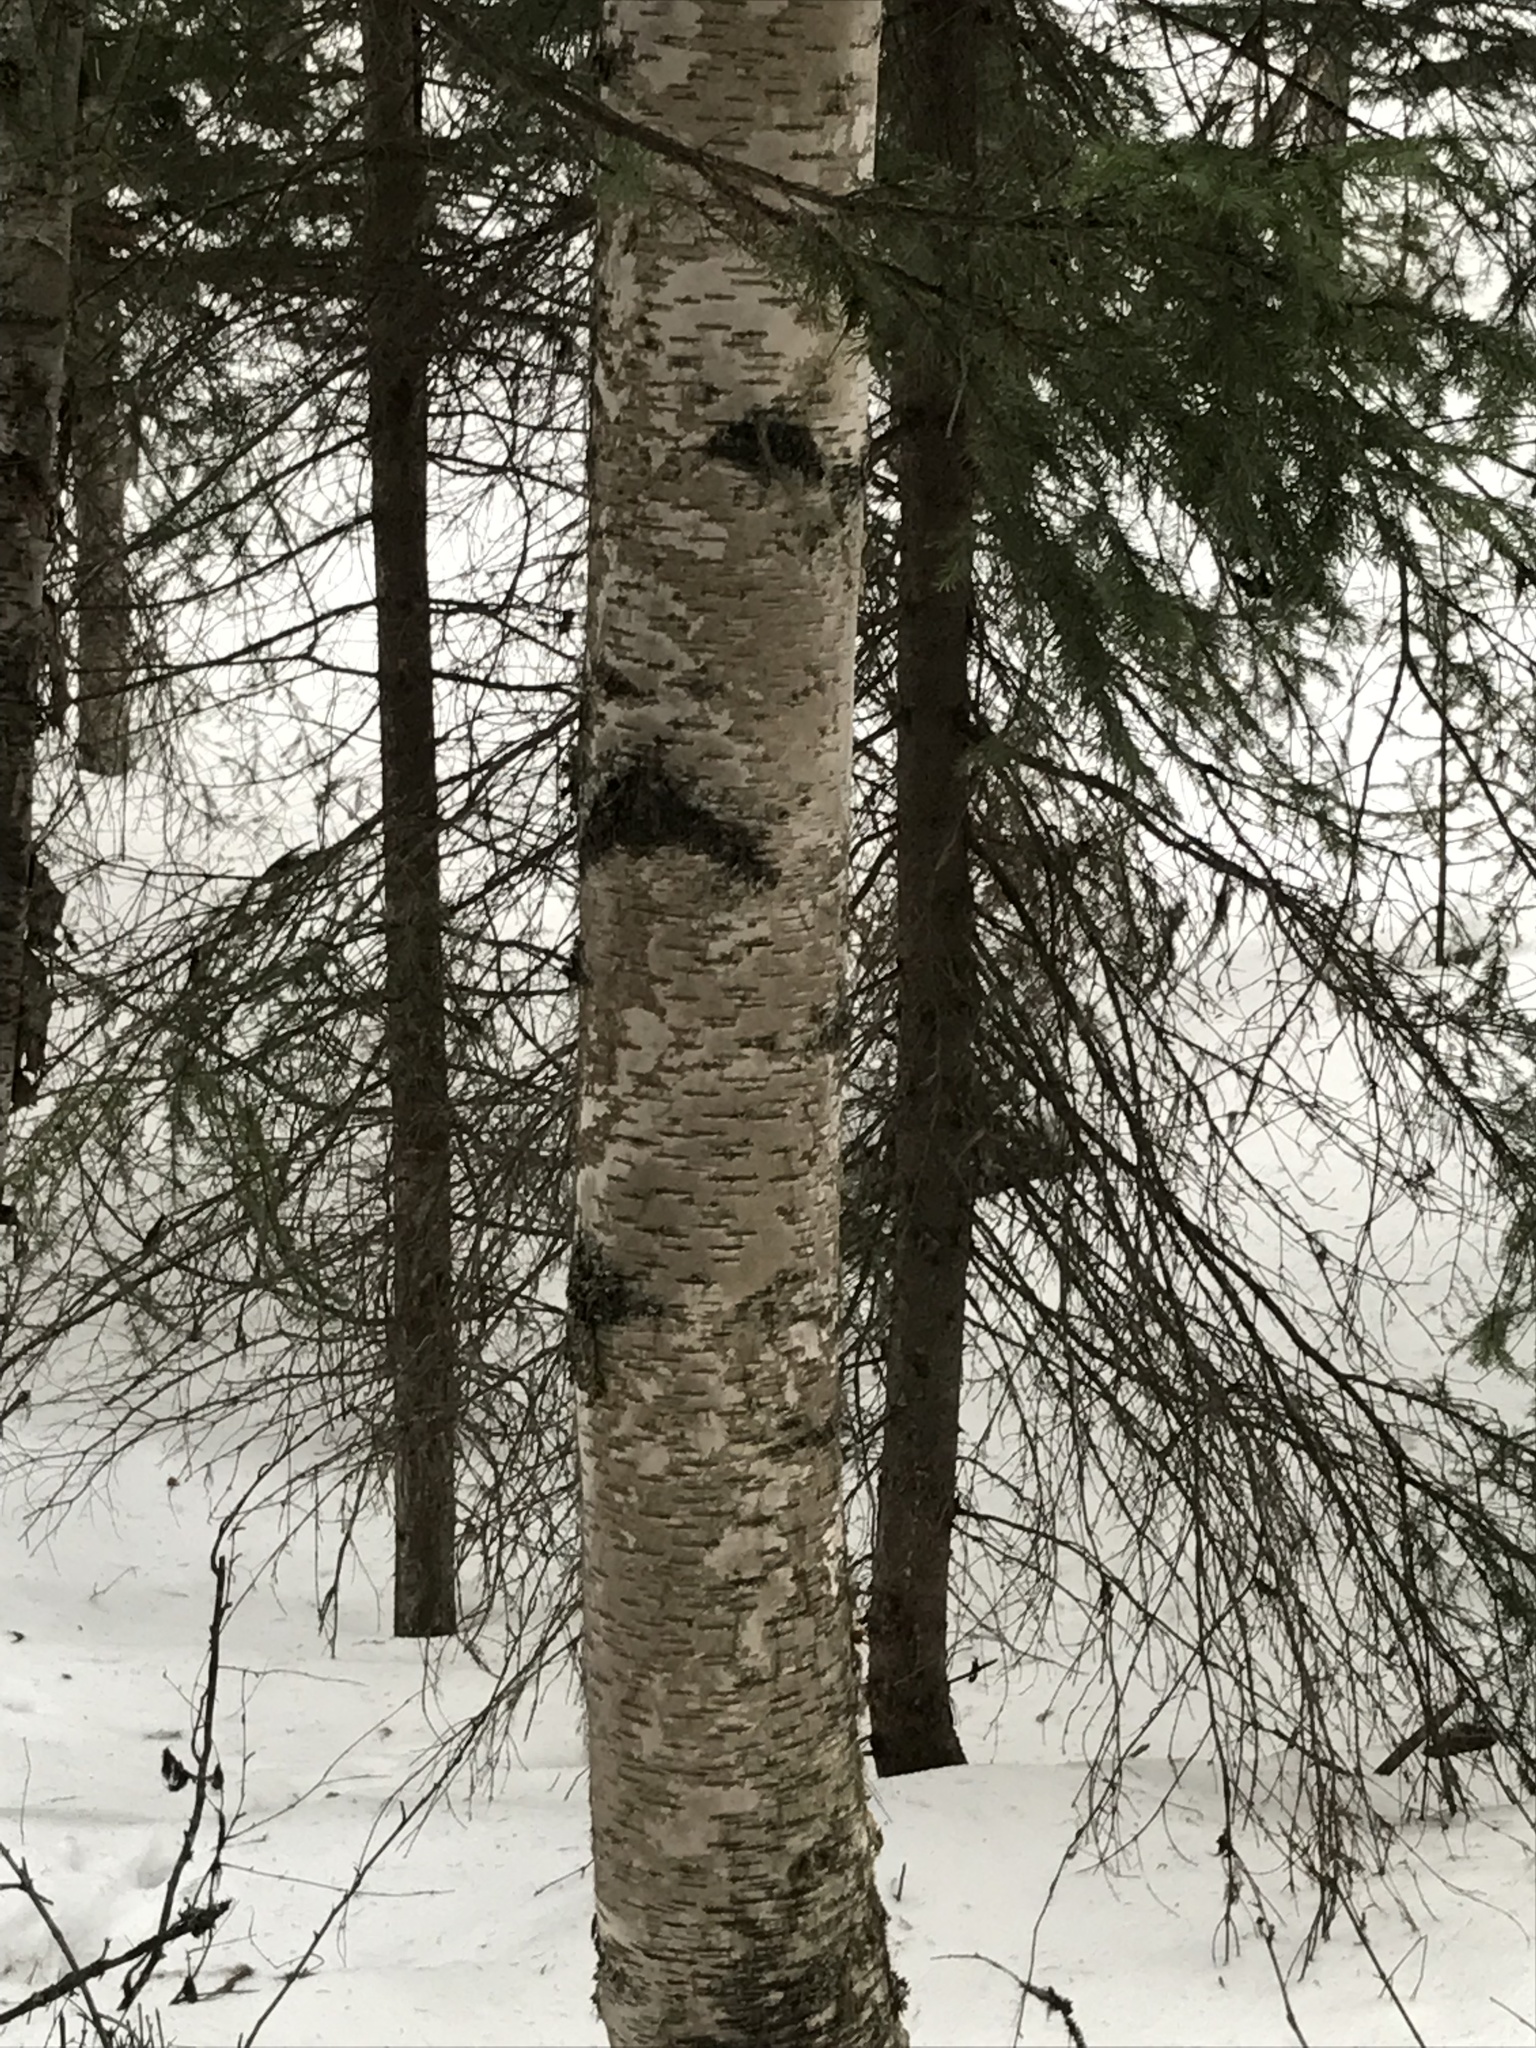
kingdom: Plantae
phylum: Tracheophyta
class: Magnoliopsida
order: Fagales
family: Betulaceae
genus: Betula
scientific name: Betula papyrifera
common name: Paper birch
